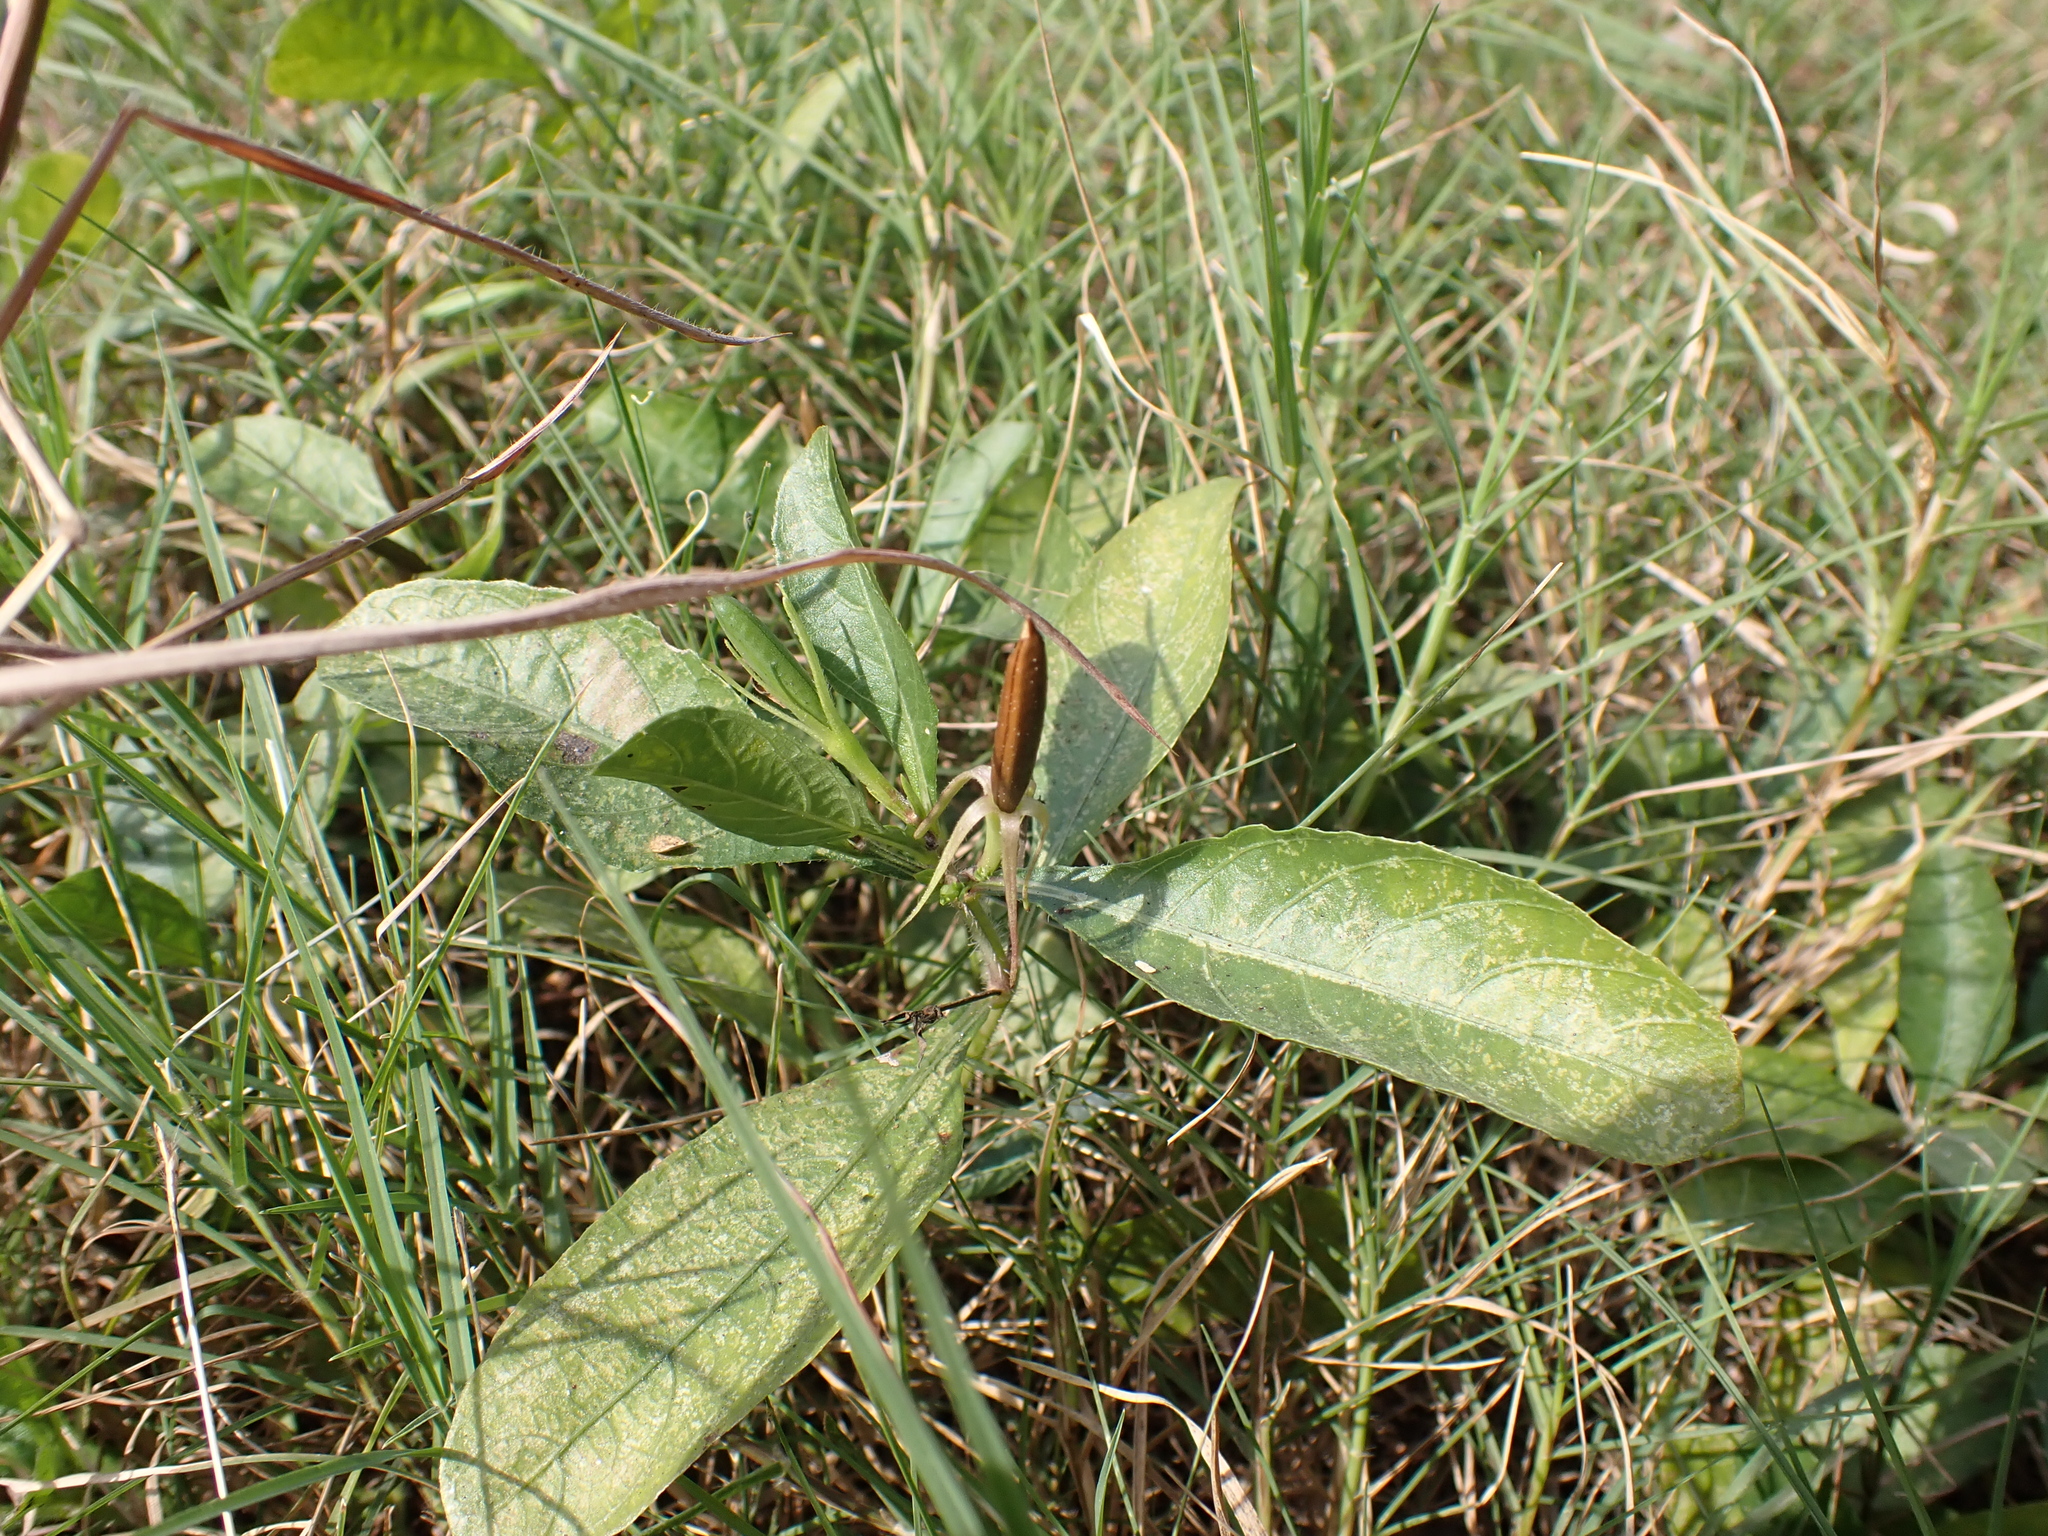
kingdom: Plantae
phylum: Tracheophyta
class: Magnoliopsida
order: Lamiales
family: Acanthaceae
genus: Ruellia
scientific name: Ruellia tuberosa
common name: Devil's bit
